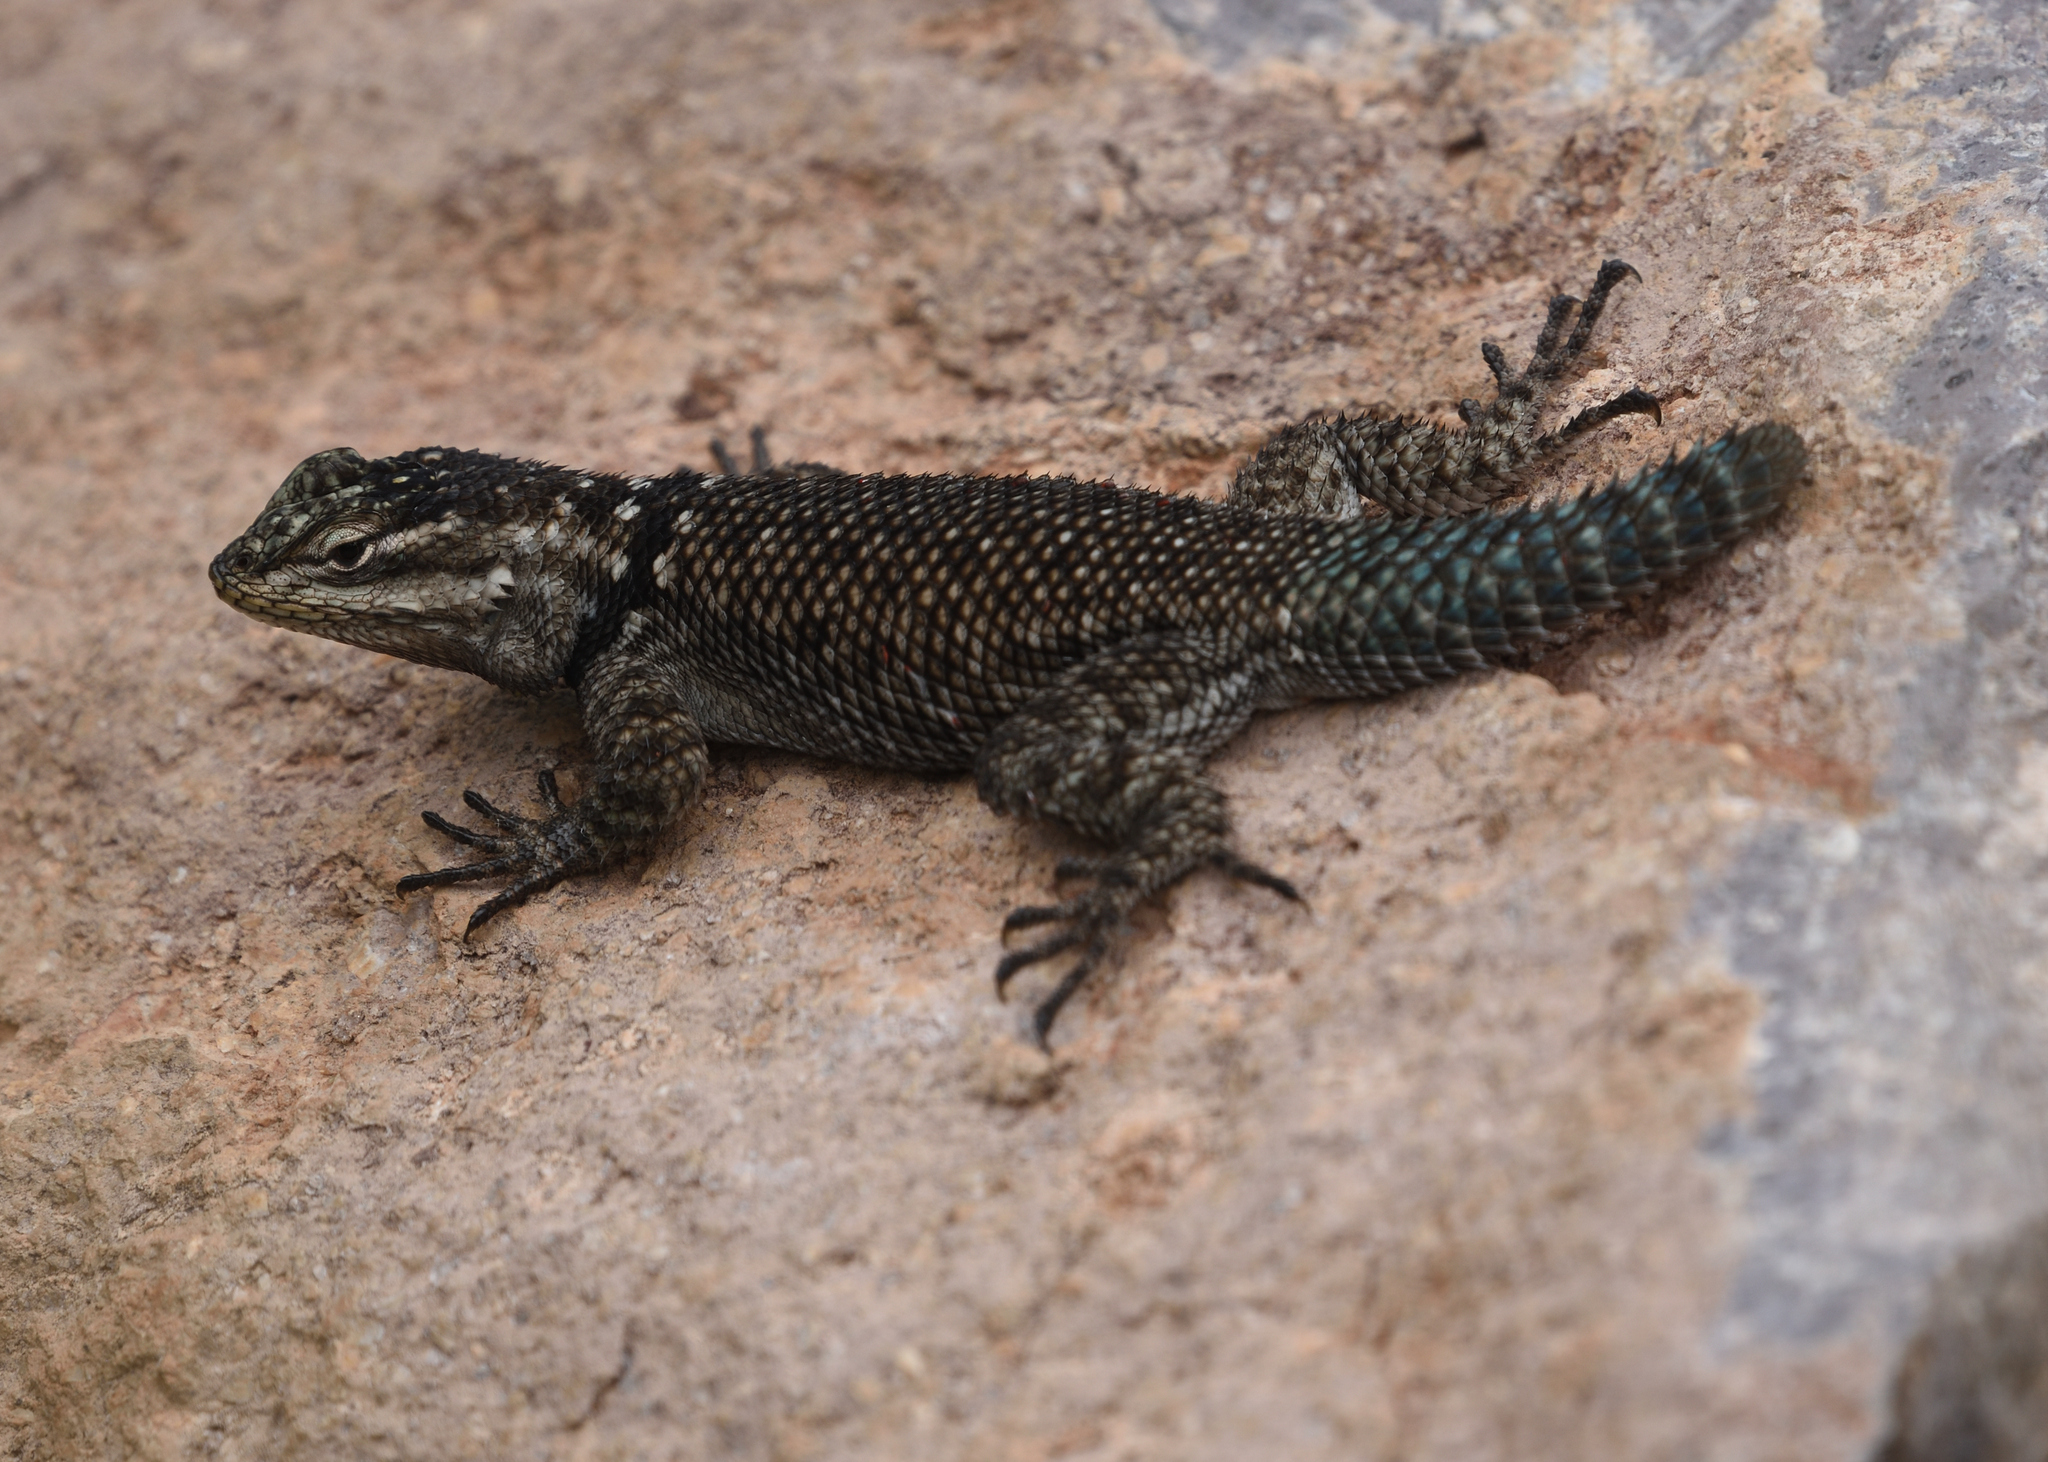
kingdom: Animalia
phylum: Chordata
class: Squamata
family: Phrynosomatidae
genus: Sceloporus
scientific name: Sceloporus jarrovii
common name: Yarrow's spiny lizard
